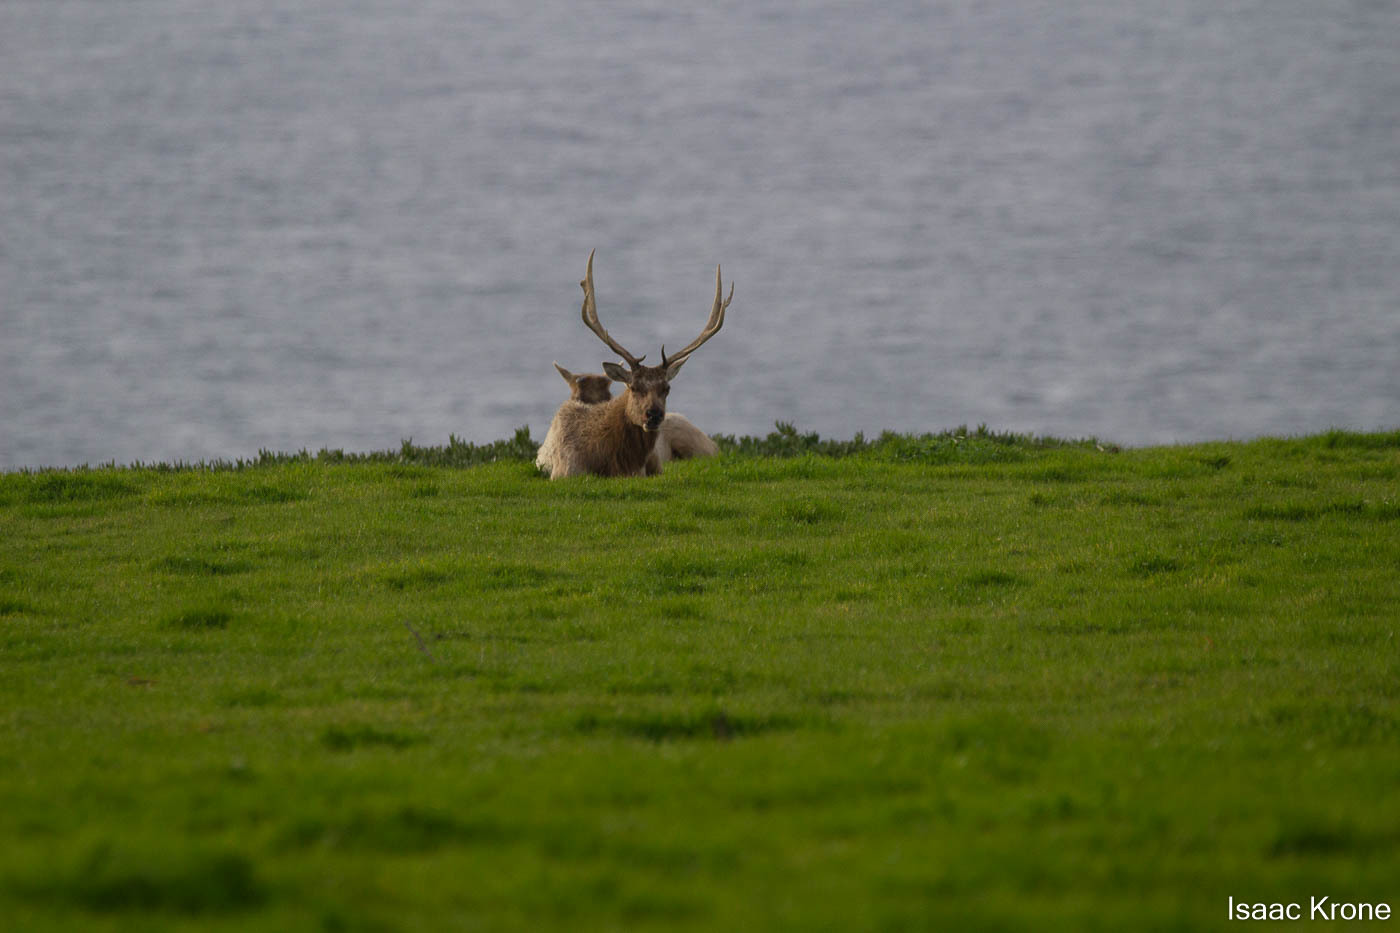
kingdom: Animalia
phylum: Chordata
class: Mammalia
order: Artiodactyla
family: Cervidae
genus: Cervus
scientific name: Cervus elaphus
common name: Red deer
